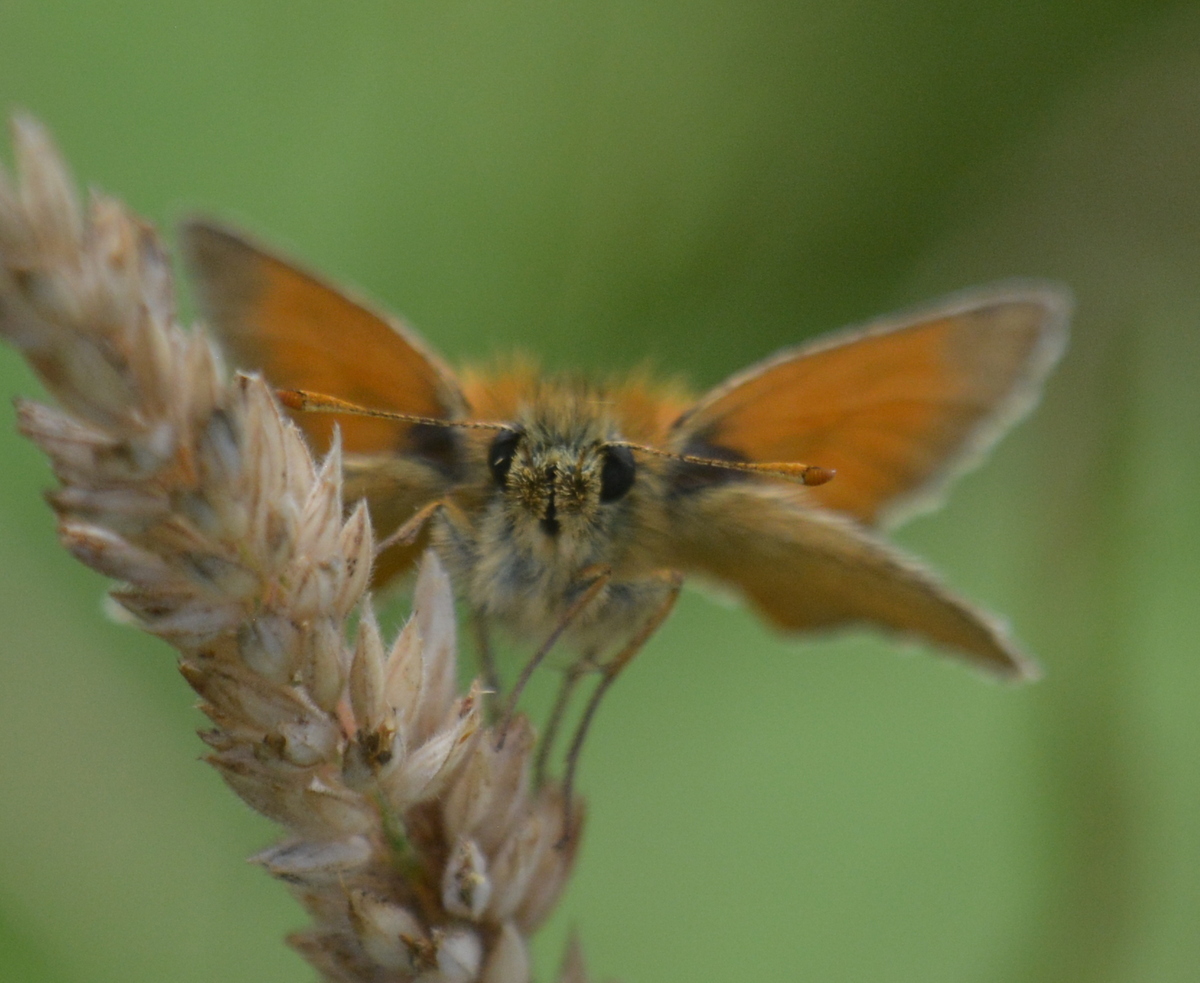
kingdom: Animalia
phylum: Arthropoda
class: Insecta
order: Lepidoptera
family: Hesperiidae
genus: Thymelicus
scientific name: Thymelicus sylvestris
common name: Small skipper
